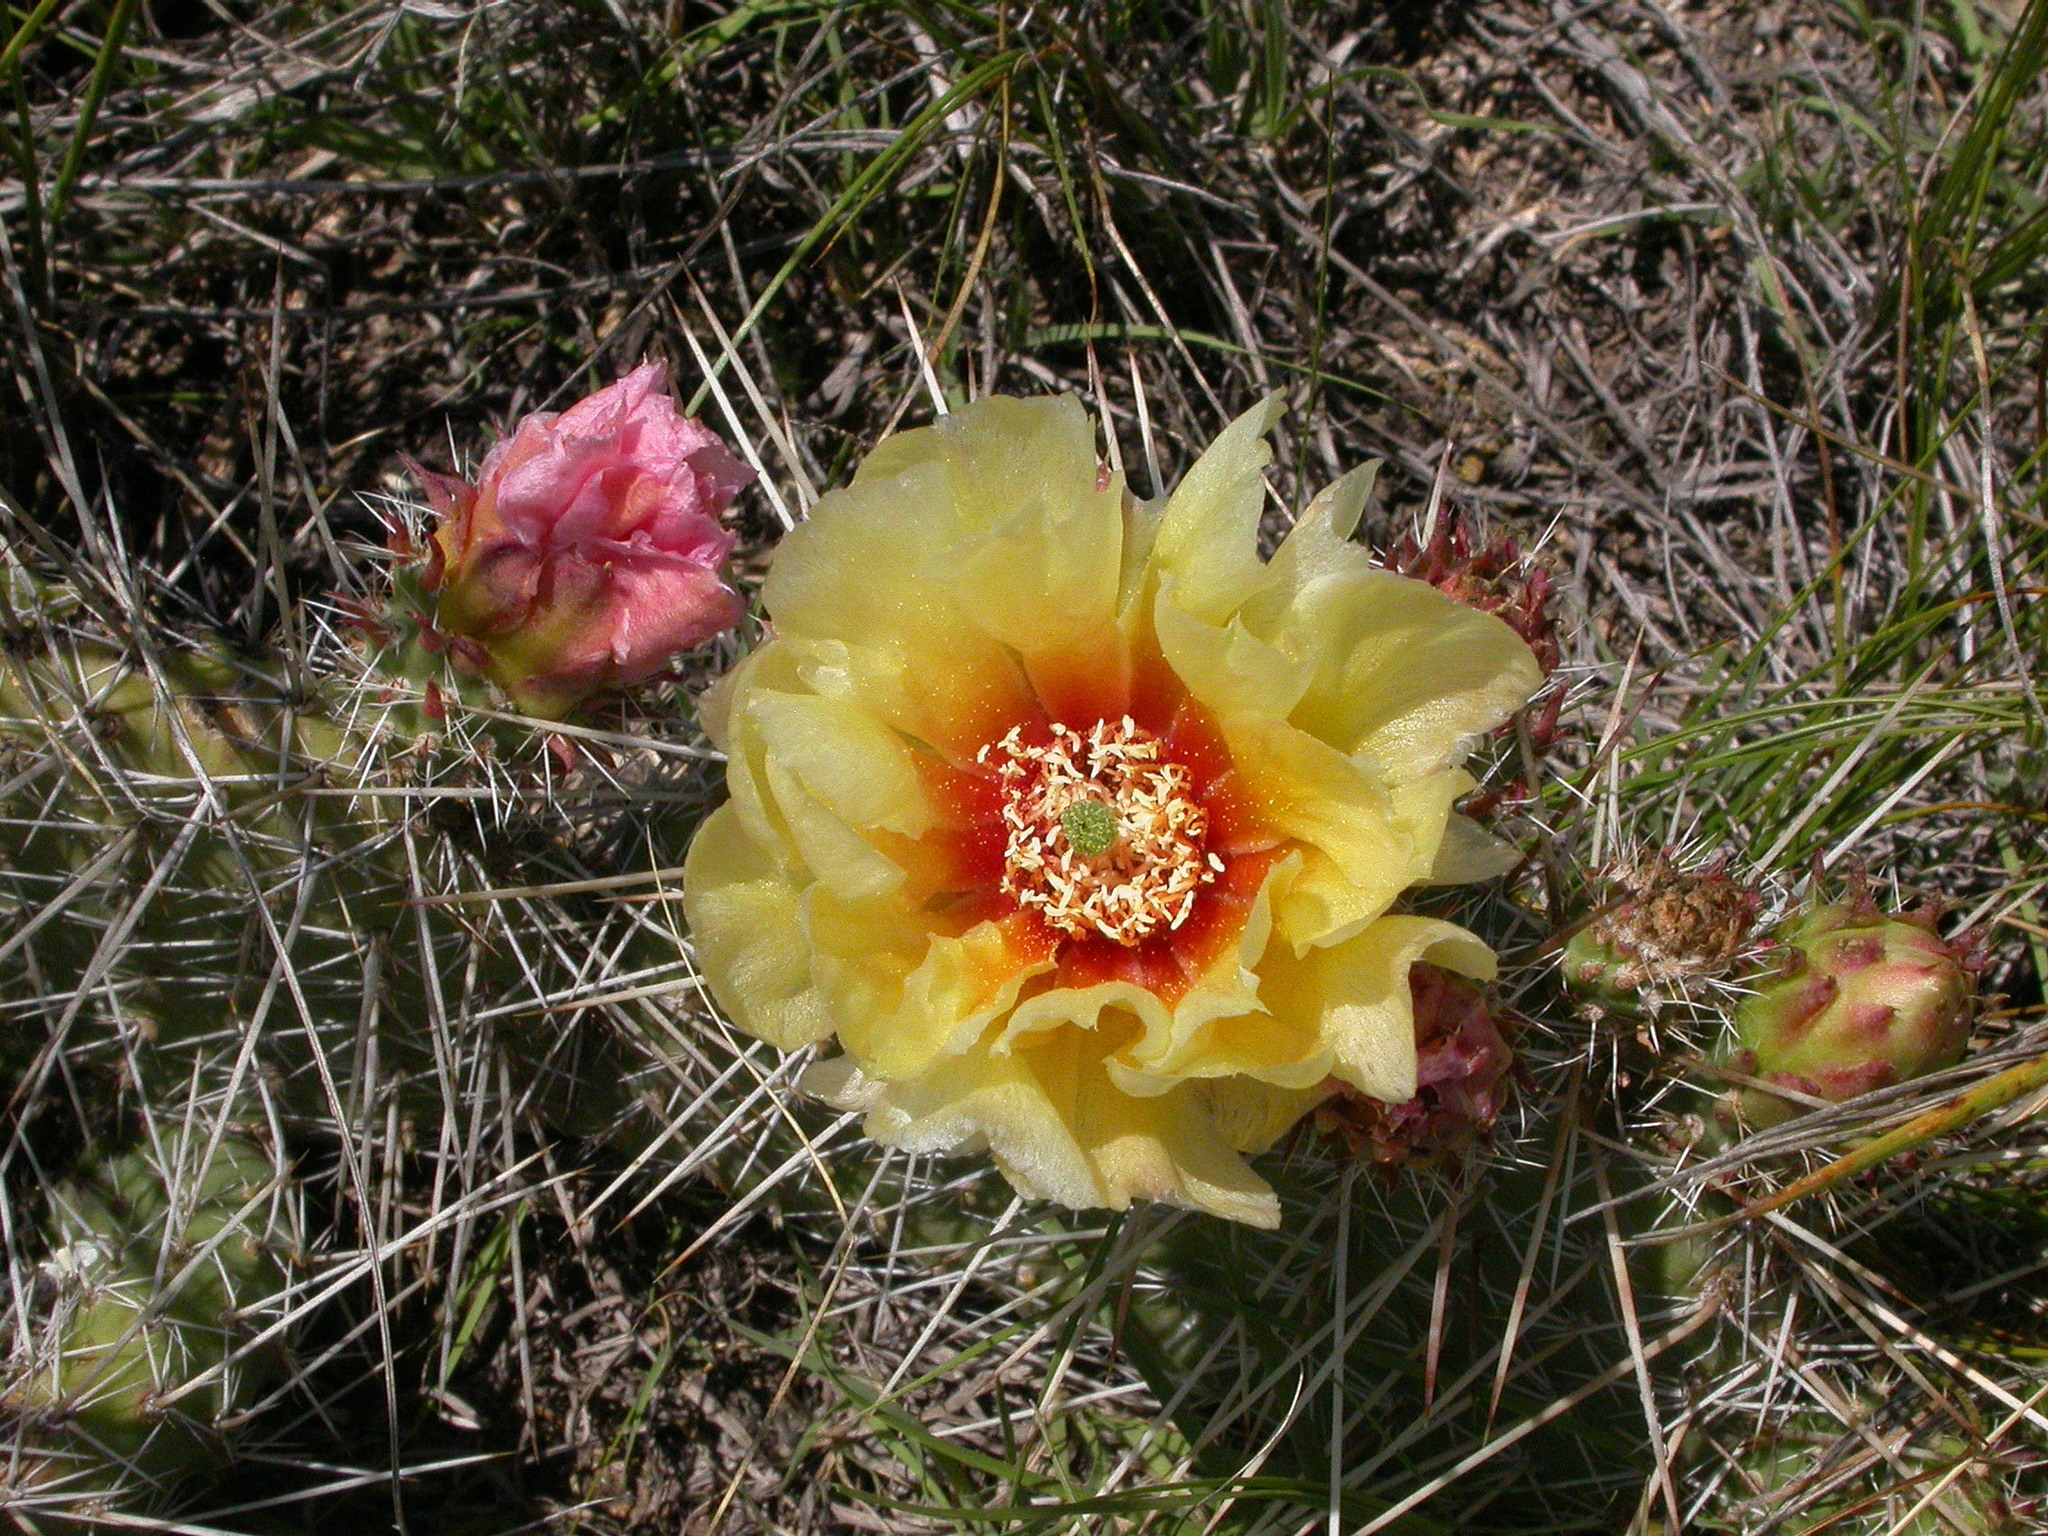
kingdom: Plantae
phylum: Tracheophyta
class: Magnoliopsida
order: Caryophyllales
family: Cactaceae
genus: Opuntia
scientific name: Opuntia polyacantha
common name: Plains prickly-pear
